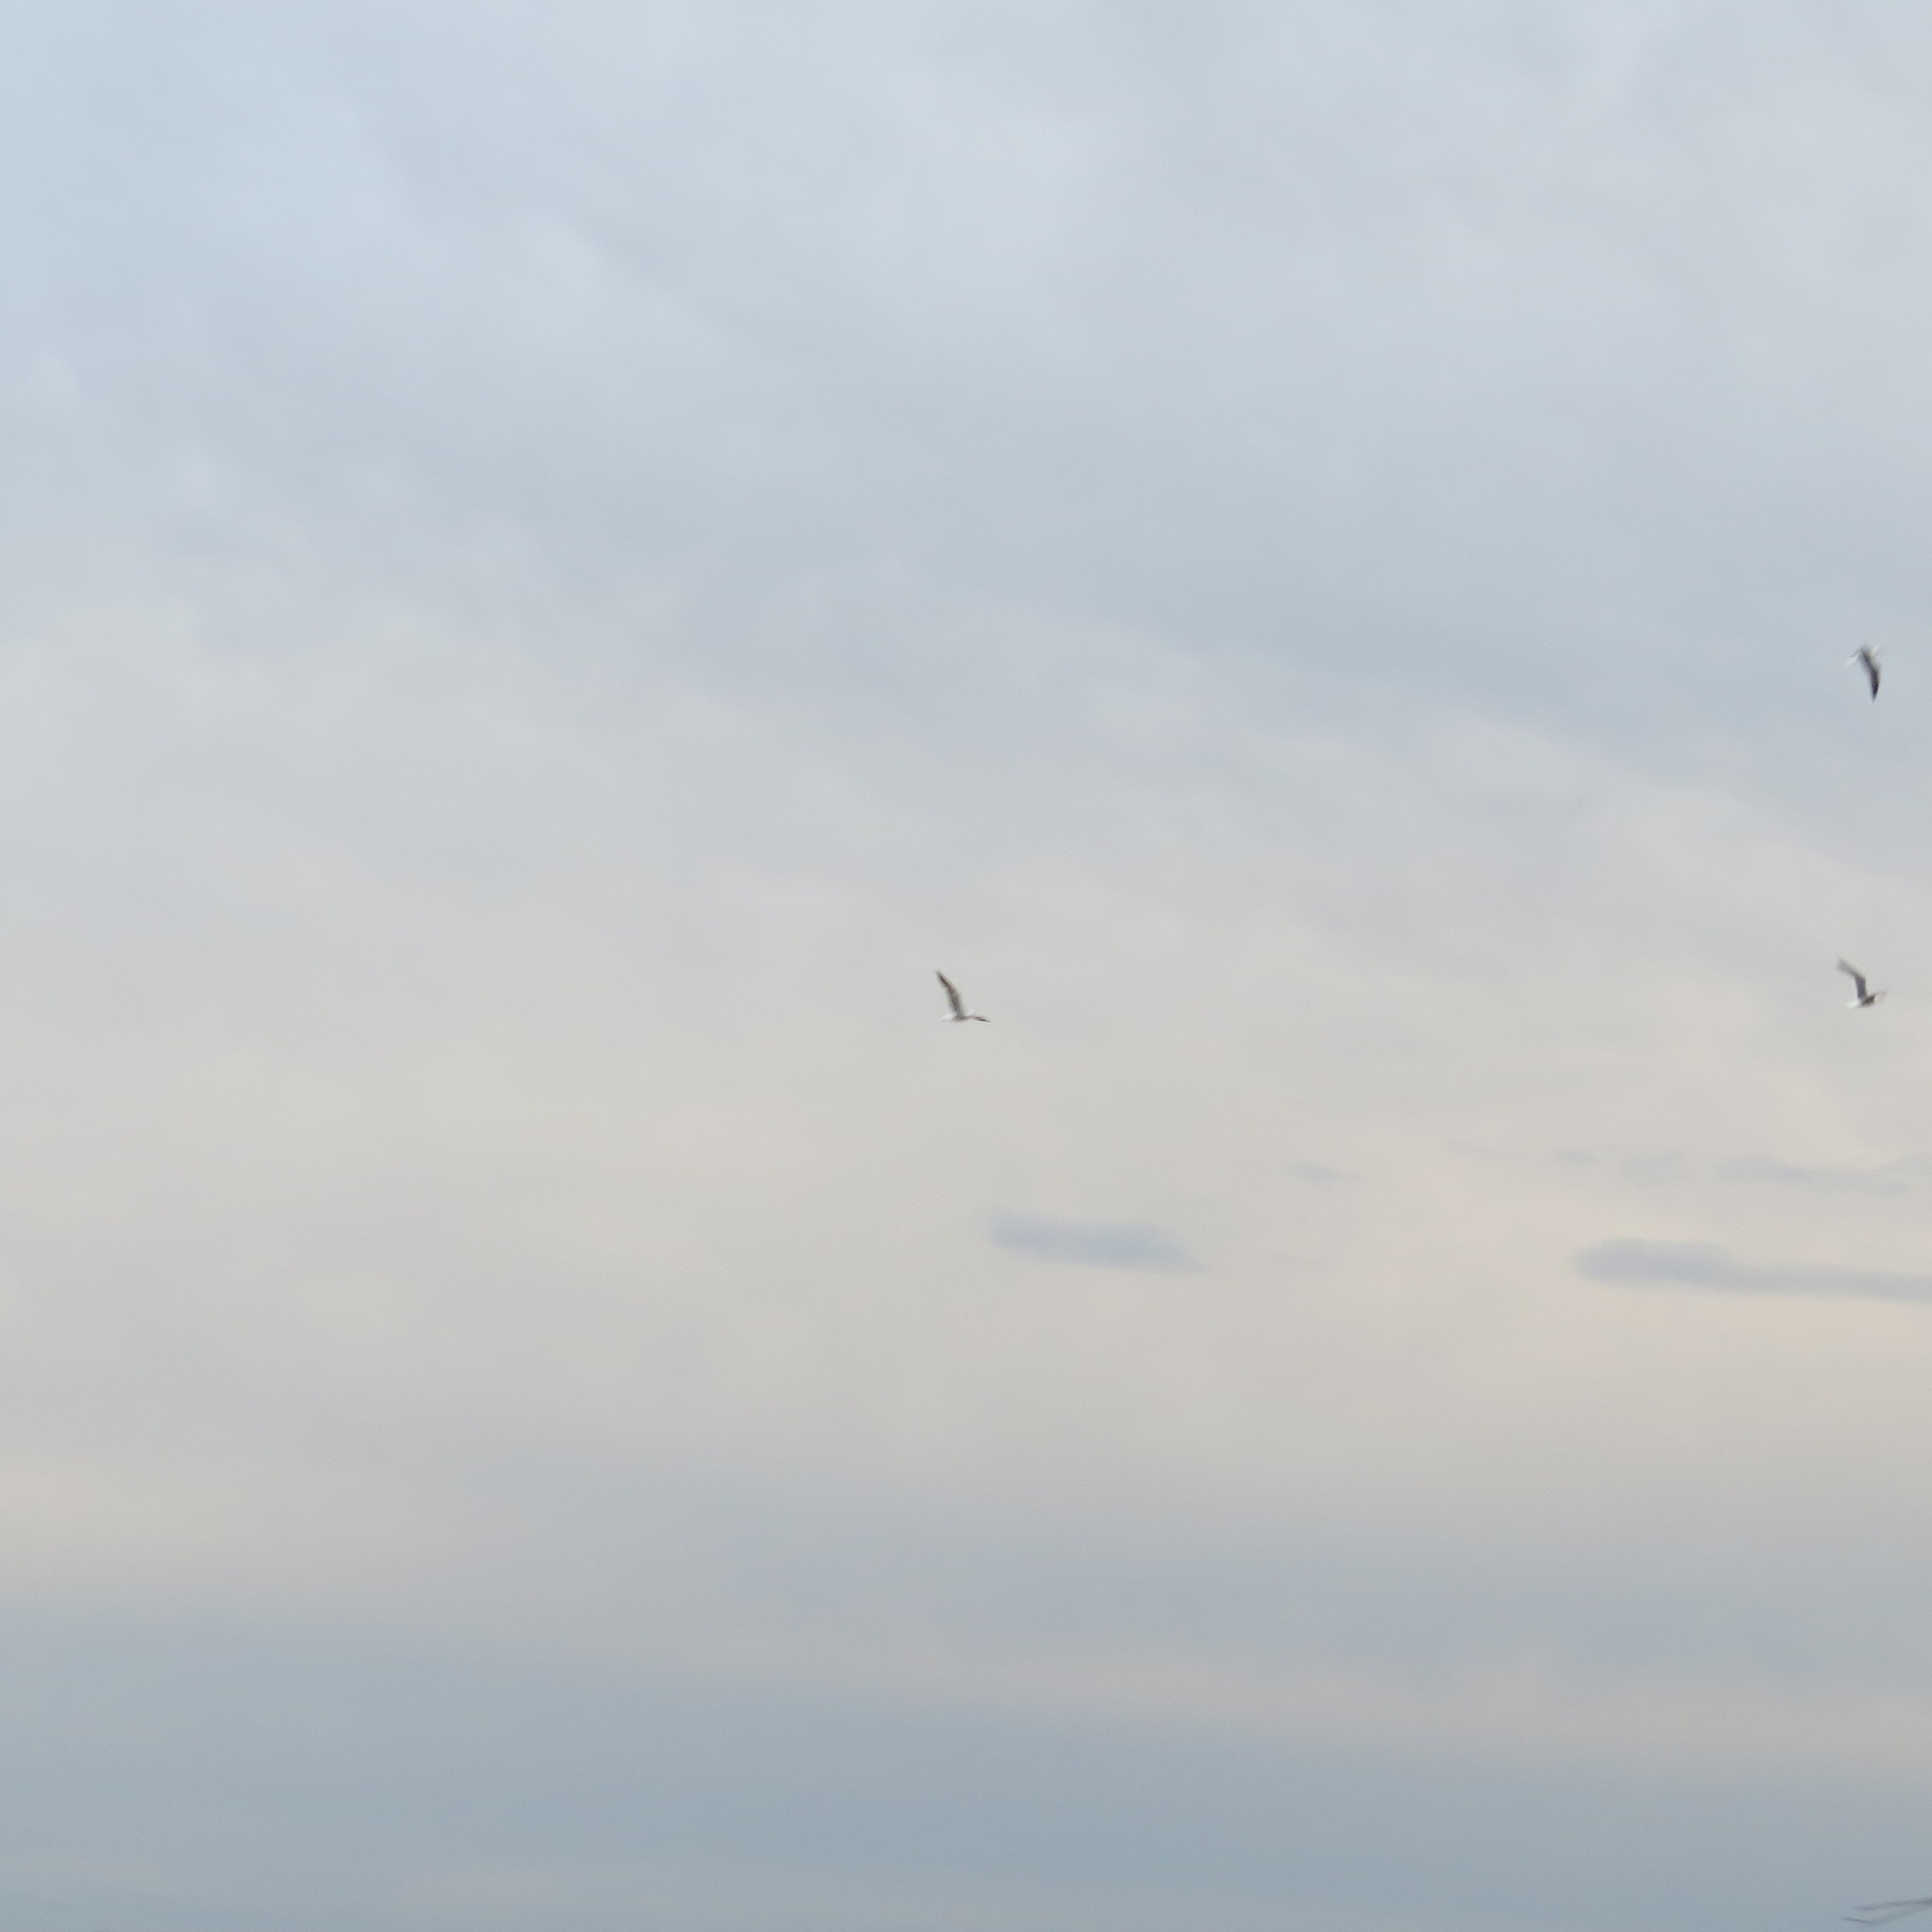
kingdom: Animalia
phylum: Chordata
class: Aves
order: Charadriiformes
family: Laridae
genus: Larus
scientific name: Larus fuscus
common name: Lesser black-backed gull
